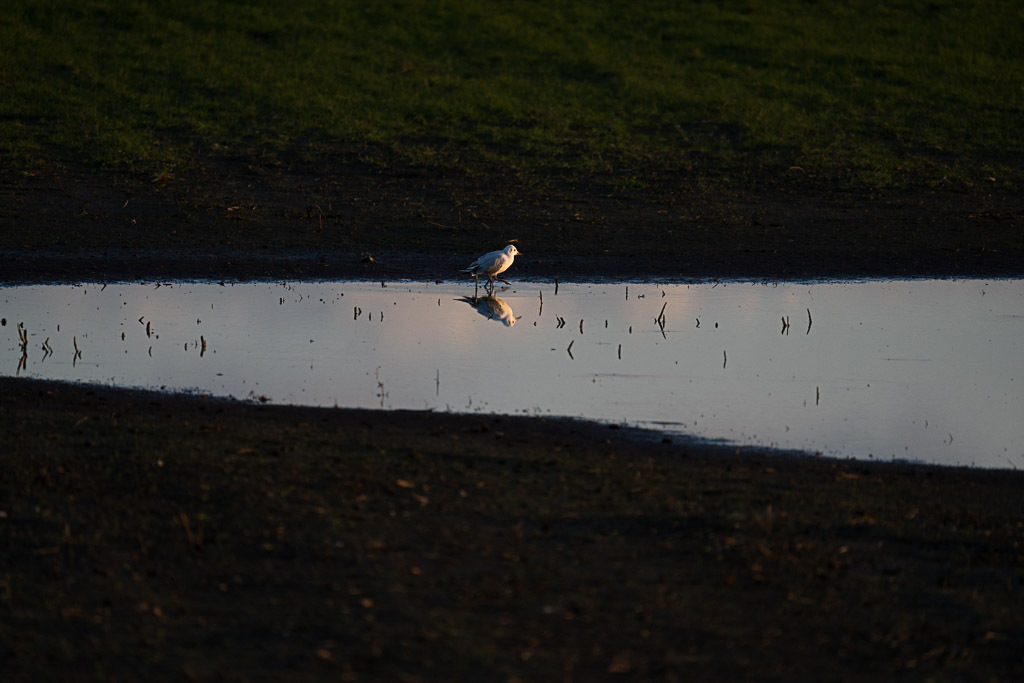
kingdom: Animalia
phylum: Chordata
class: Aves
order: Charadriiformes
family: Laridae
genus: Chroicocephalus
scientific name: Chroicocephalus ridibundus
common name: Black-headed gull
